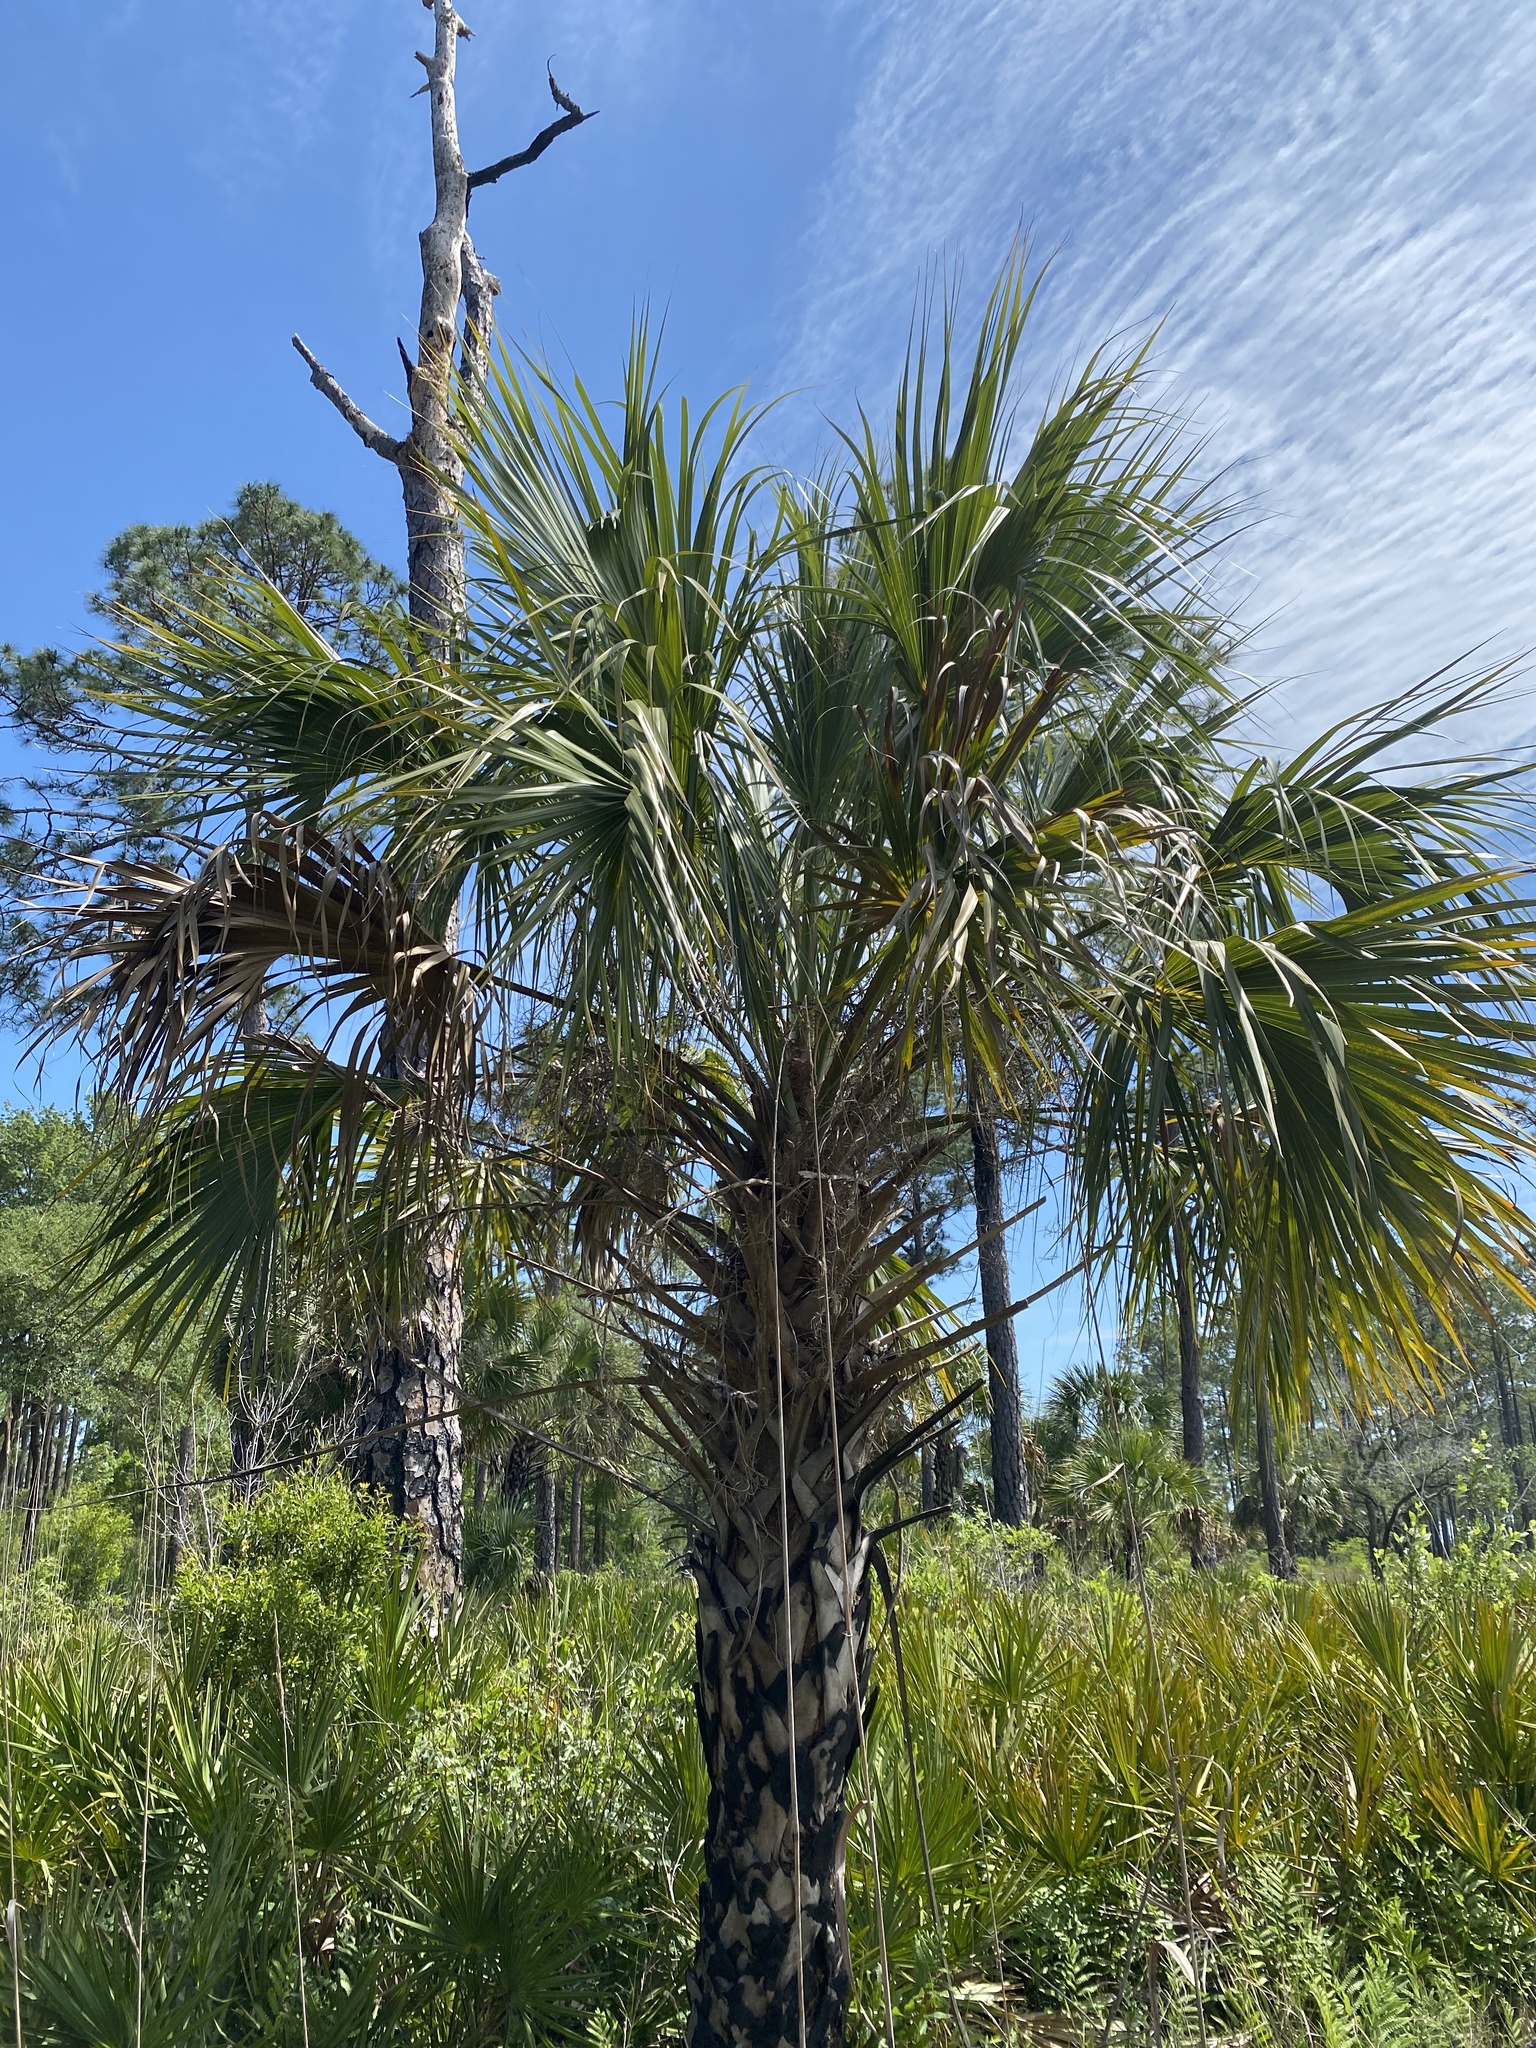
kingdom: Plantae
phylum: Tracheophyta
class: Liliopsida
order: Arecales
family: Arecaceae
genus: Sabal
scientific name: Sabal palmetto
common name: Blue palmetto
